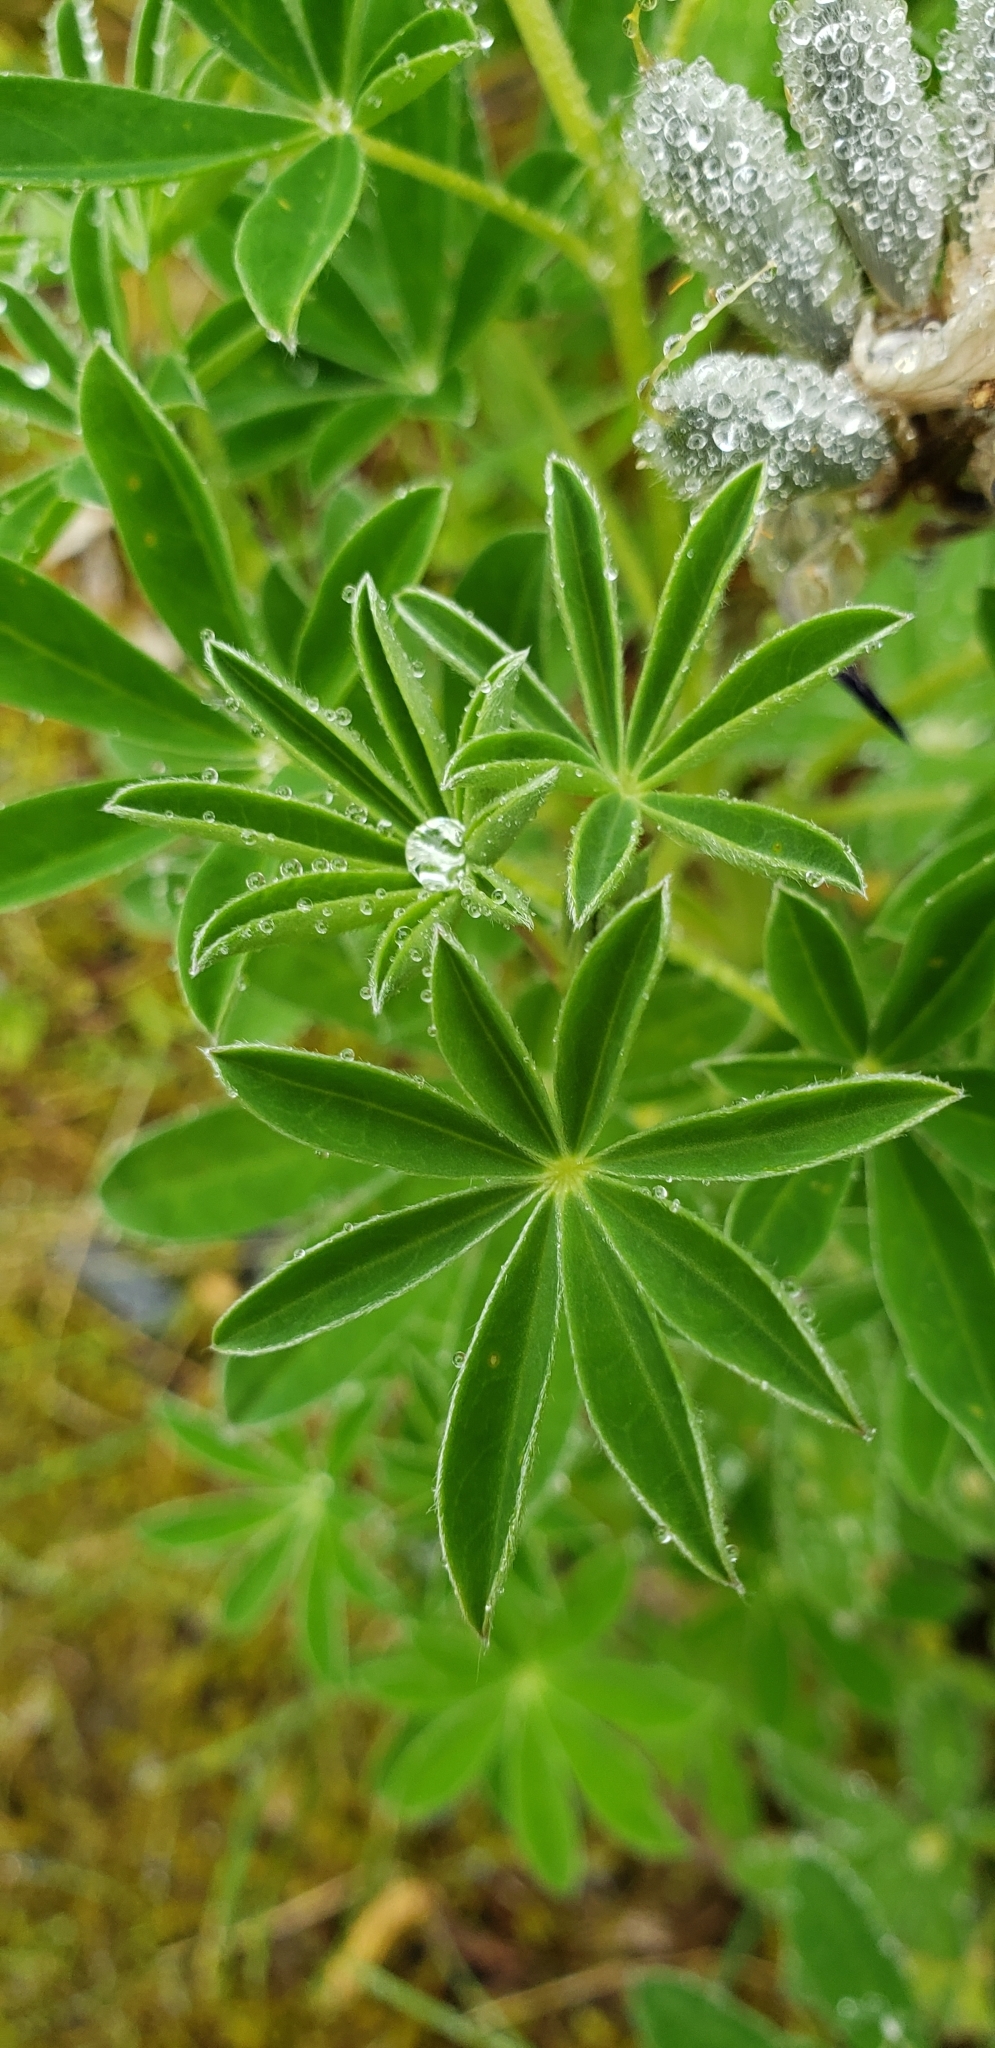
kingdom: Plantae
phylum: Tracheophyta
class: Magnoliopsida
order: Fabales
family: Fabaceae
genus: Lupinus
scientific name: Lupinus nootkatensis
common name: Nootka lupine
